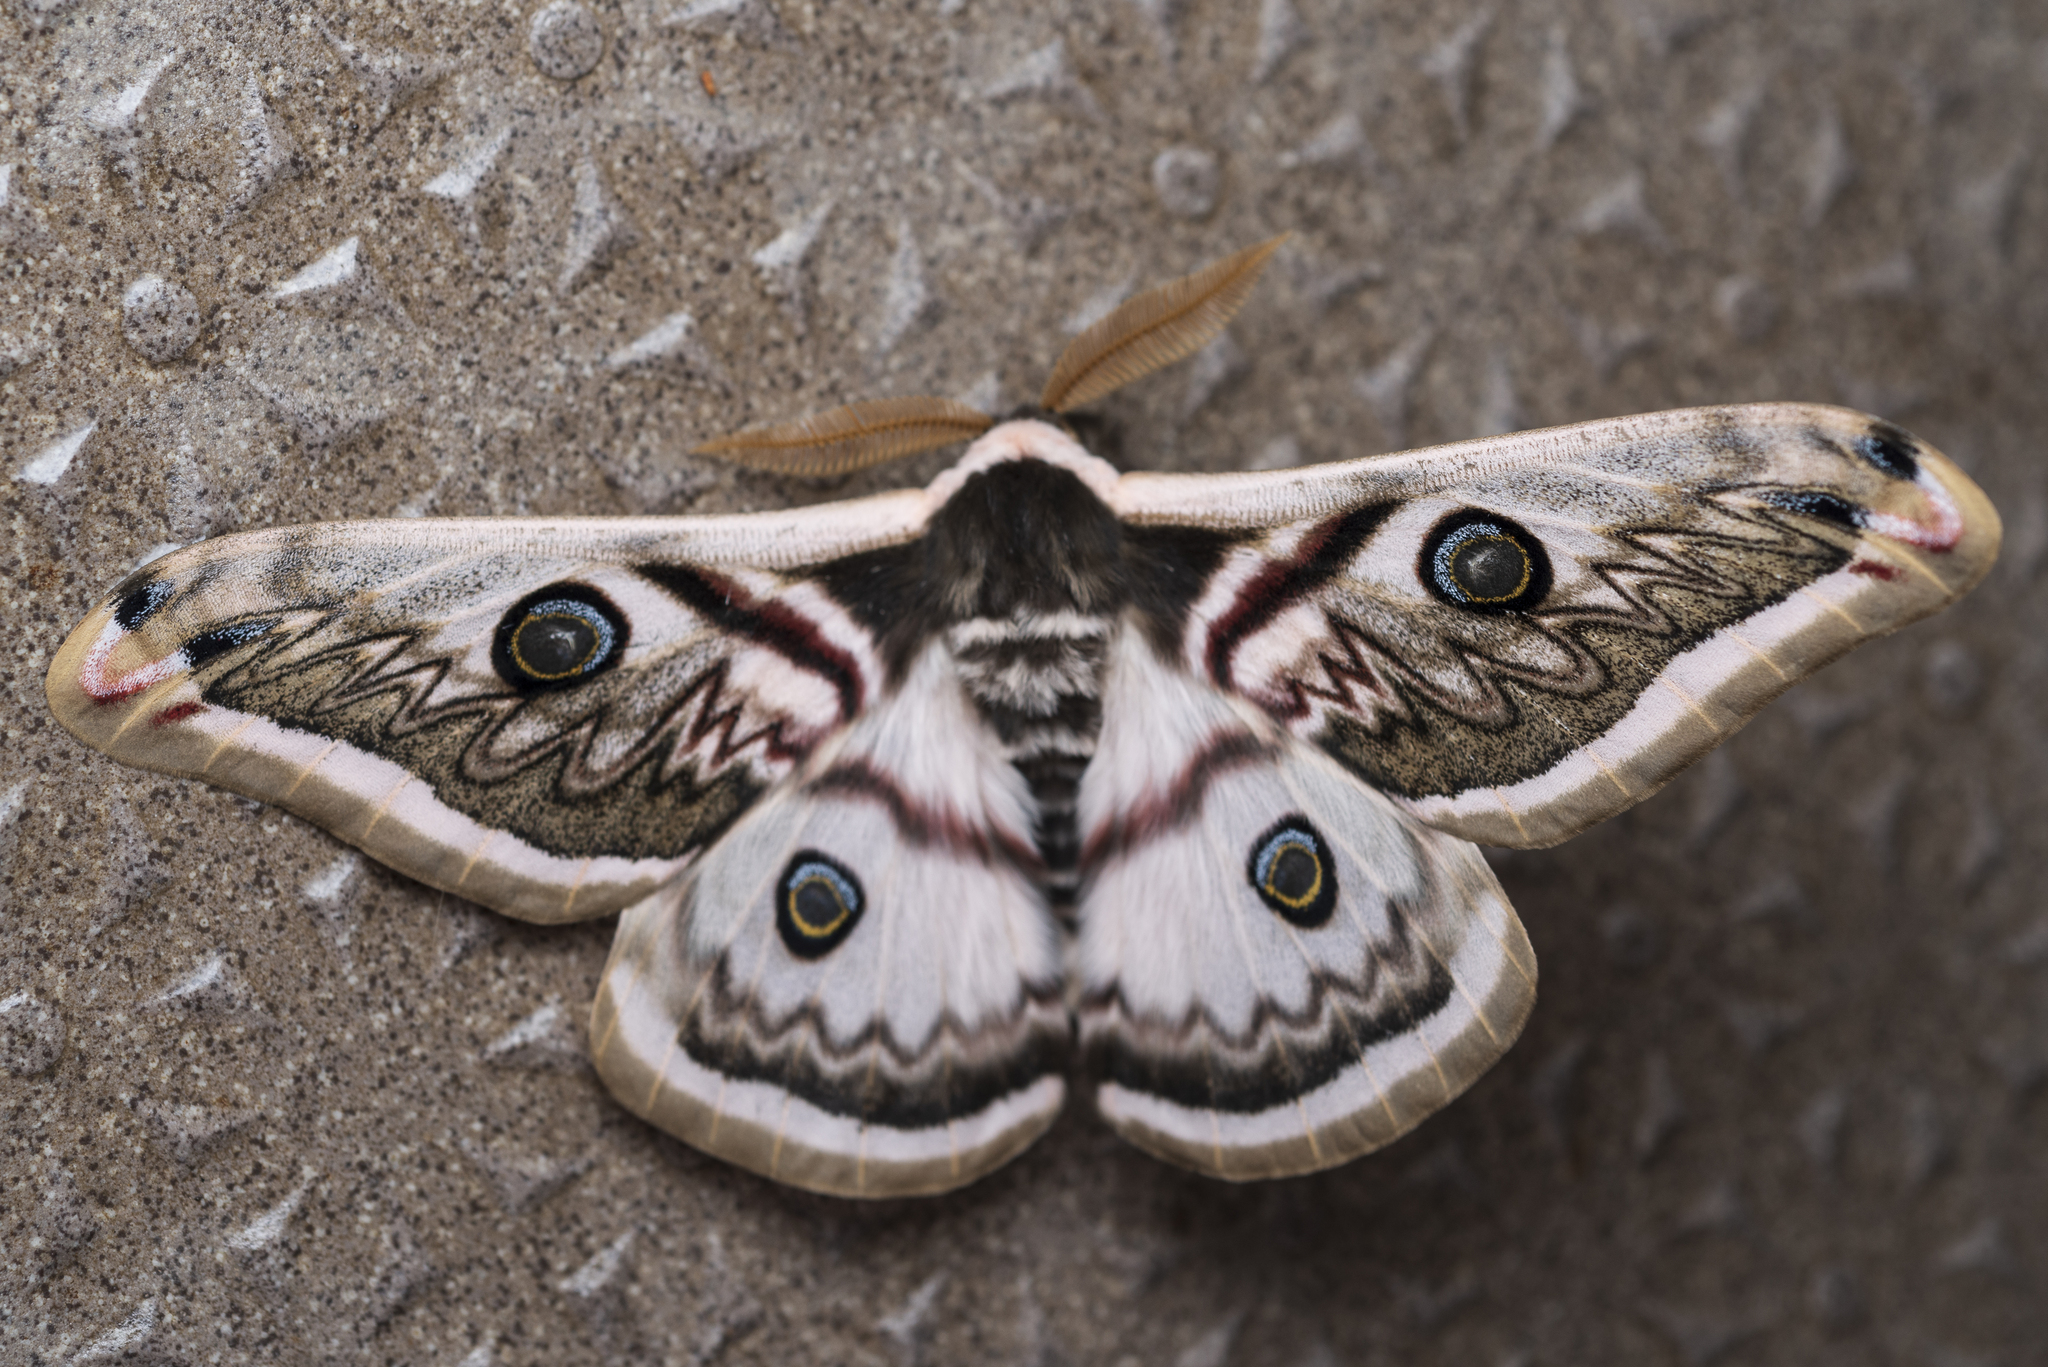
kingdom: Animalia
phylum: Arthropoda
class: Insecta
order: Lepidoptera
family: Saturniidae
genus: Saturnia
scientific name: Saturnia pyretorum
